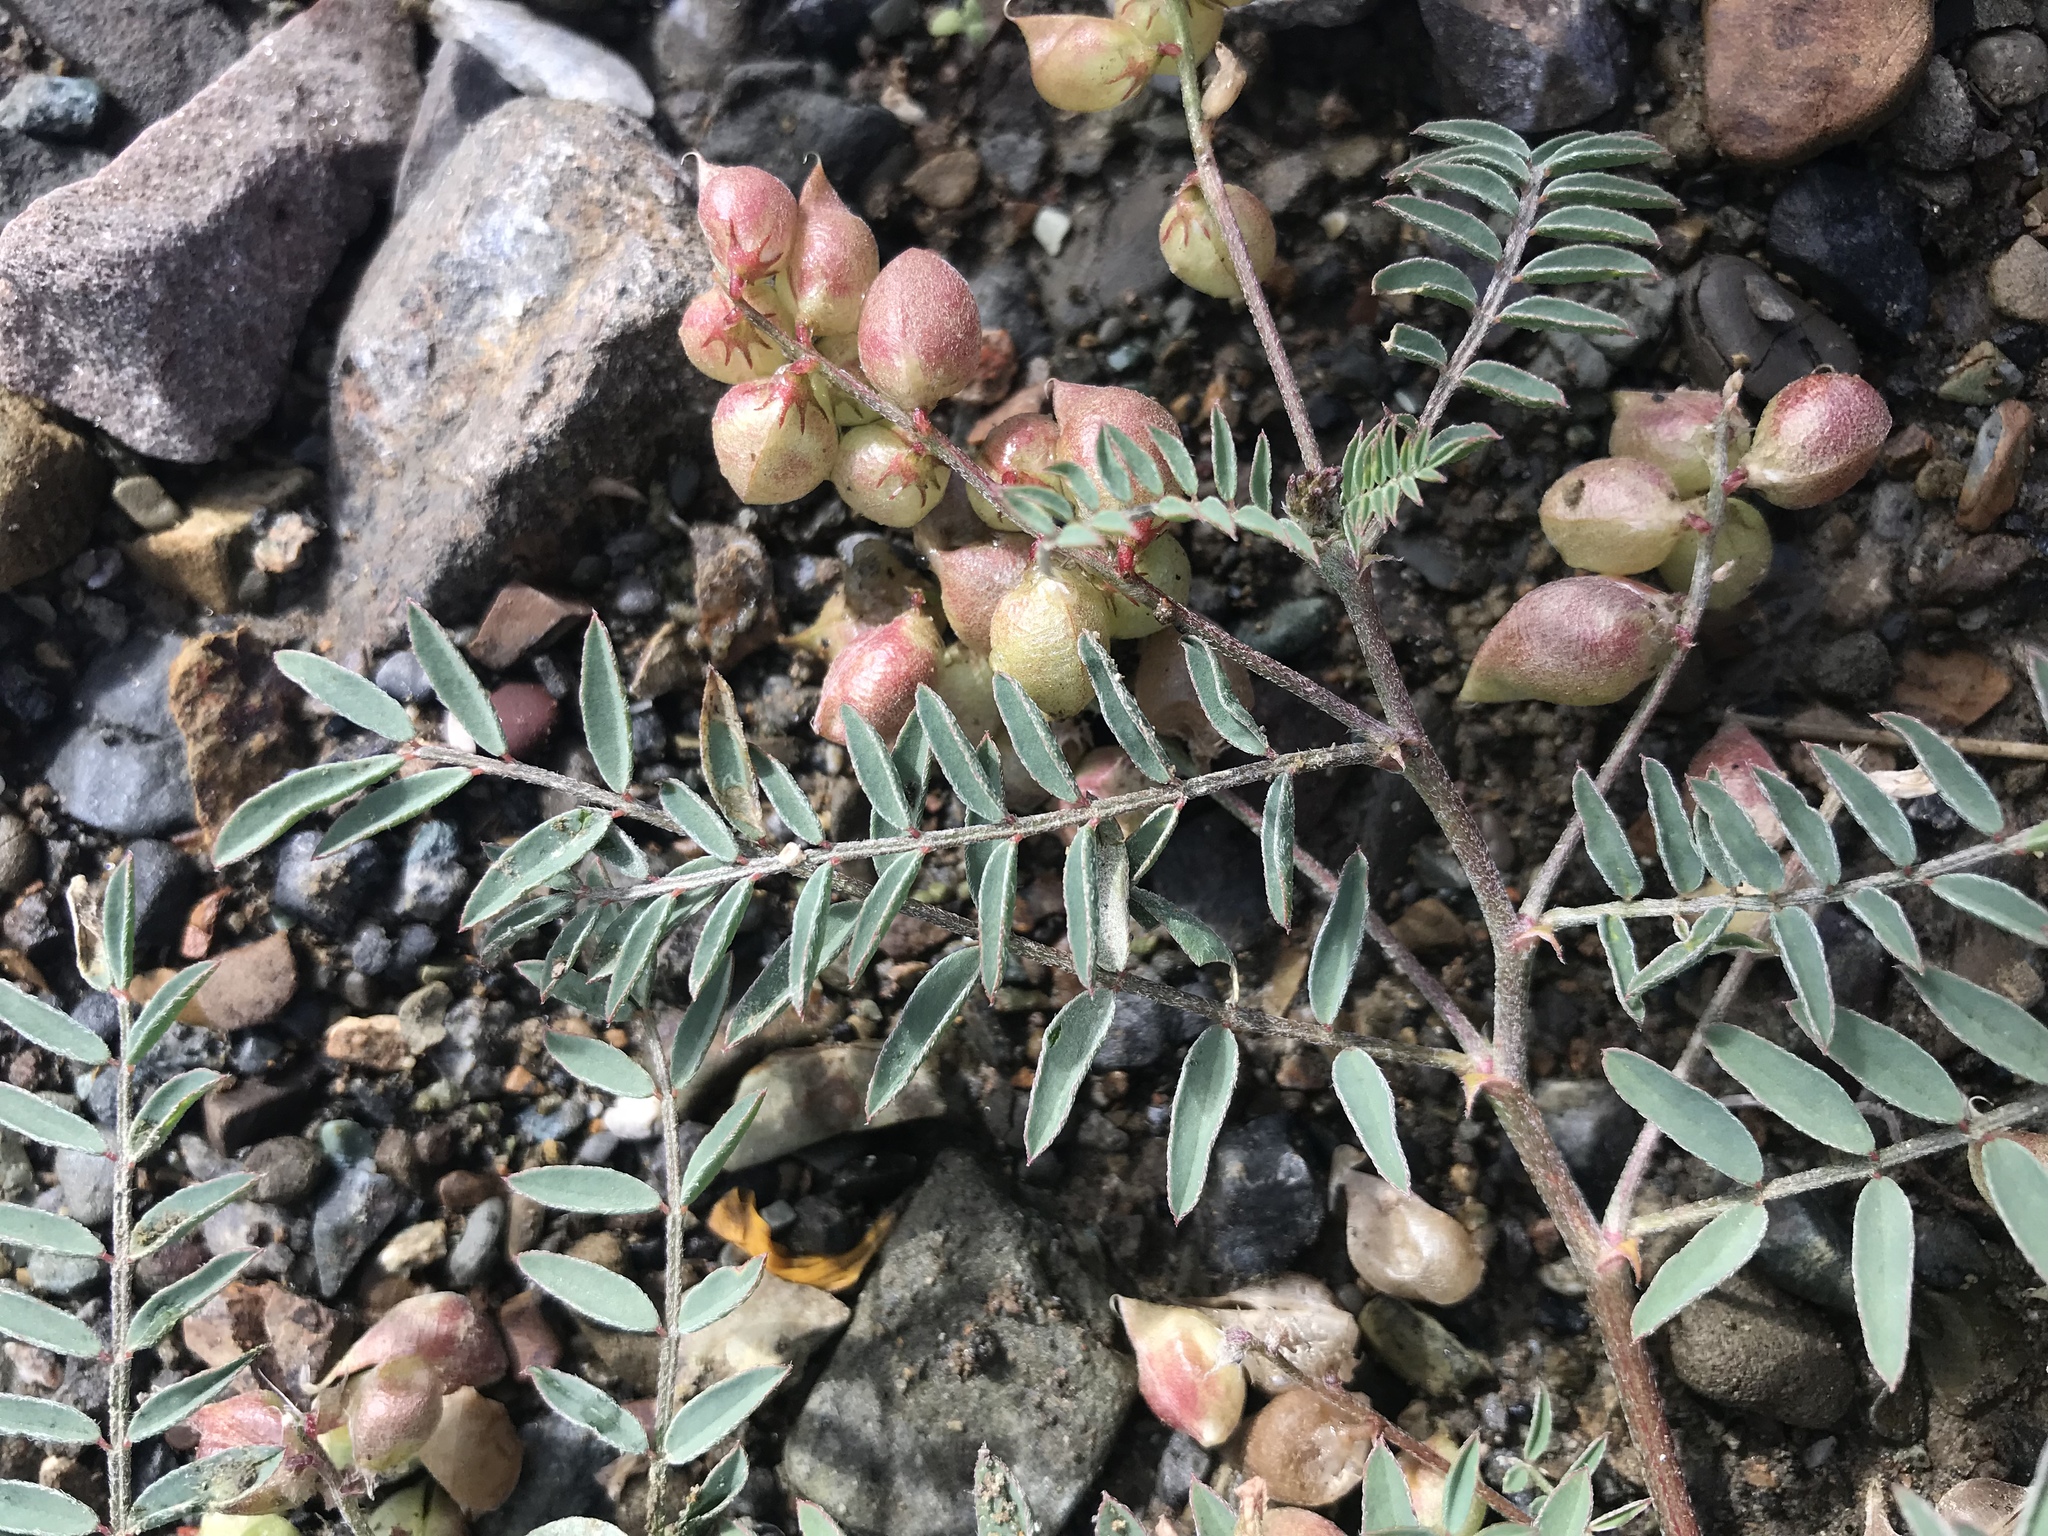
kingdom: Plantae
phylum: Tracheophyta
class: Magnoliopsida
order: Fabales
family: Fabaceae
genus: Astragalus
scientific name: Astragalus insularis
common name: Cedros milk-vetch
